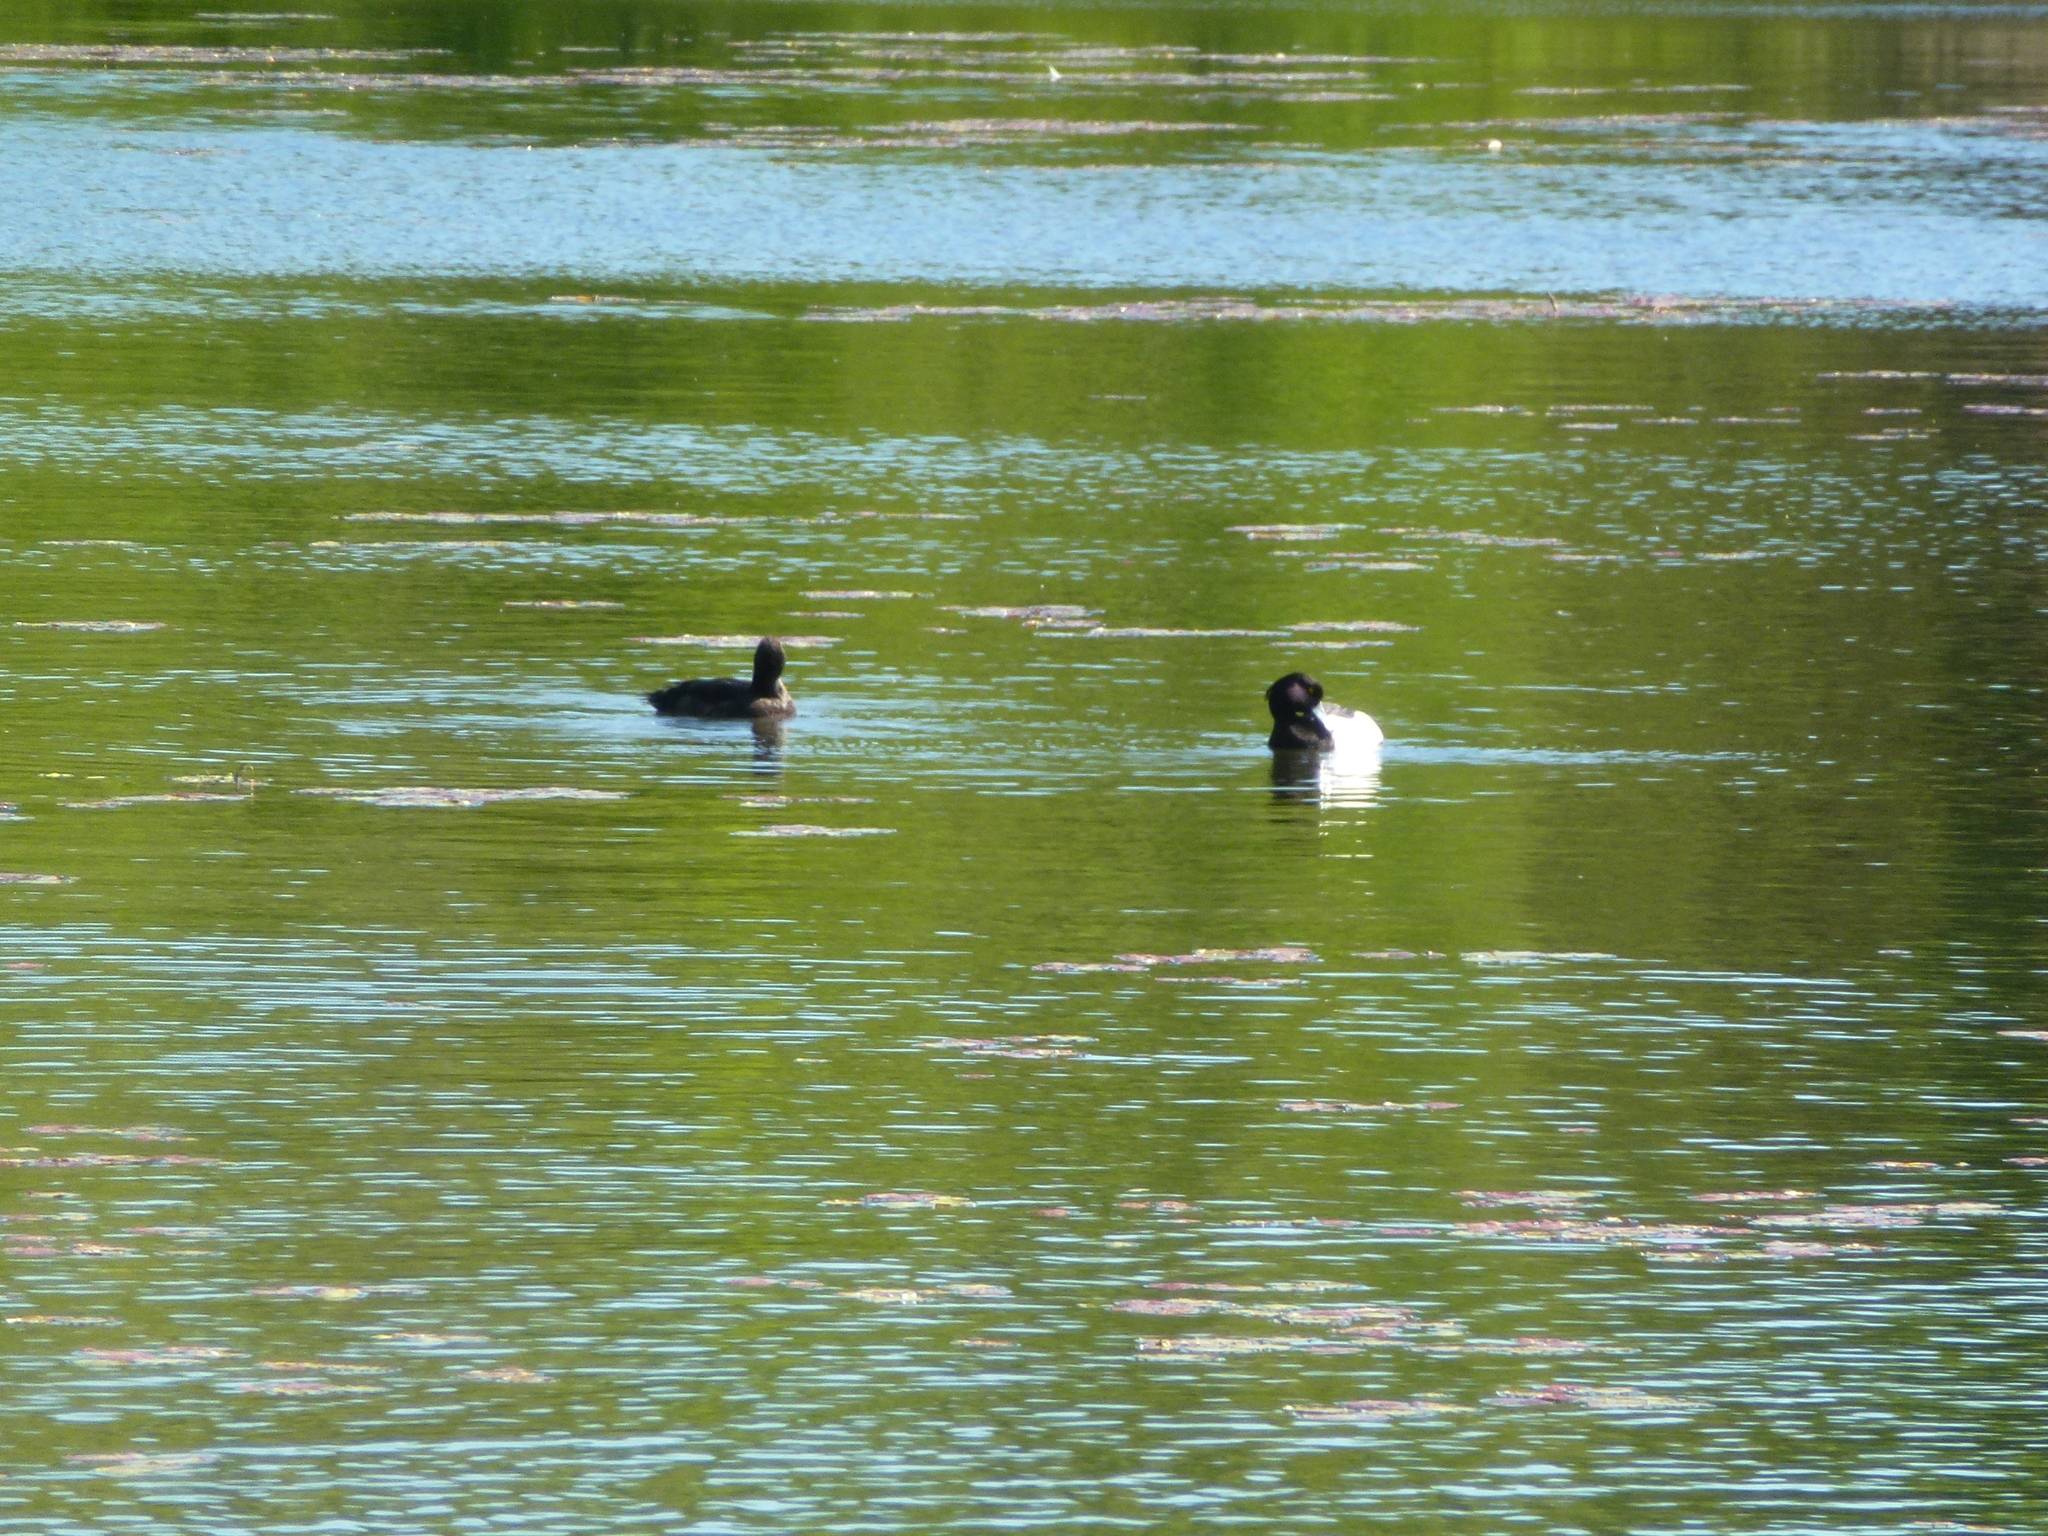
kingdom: Animalia
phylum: Chordata
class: Aves
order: Anseriformes
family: Anatidae
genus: Aythya
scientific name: Aythya fuligula
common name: Tufted duck
